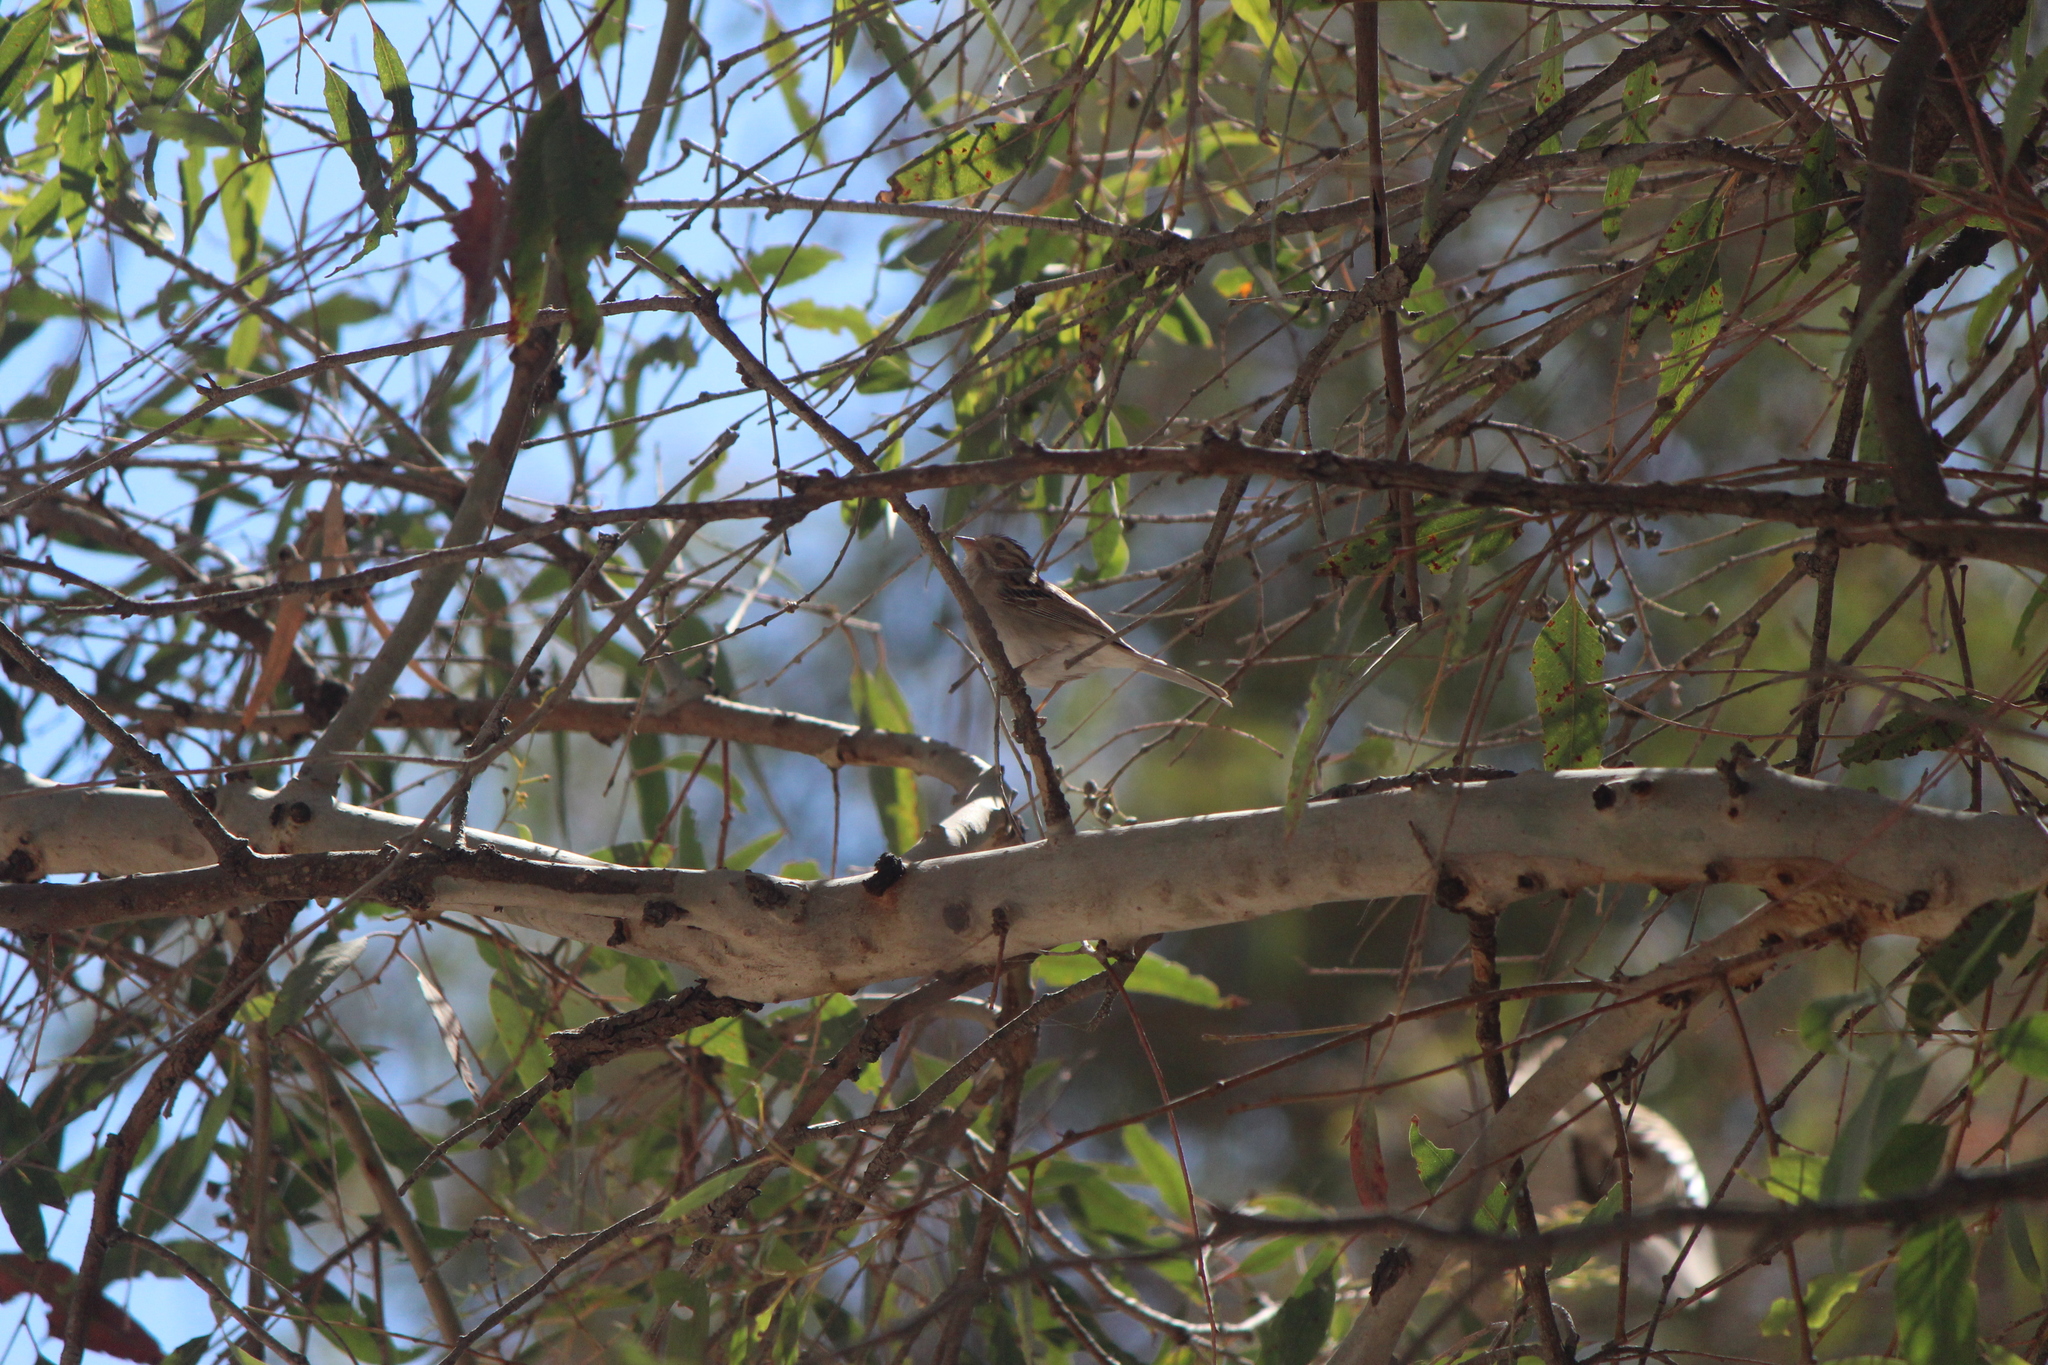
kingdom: Animalia
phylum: Chordata
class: Aves
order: Passeriformes
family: Passerellidae
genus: Spizella
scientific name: Spizella pallida
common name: Clay-colored sparrow
